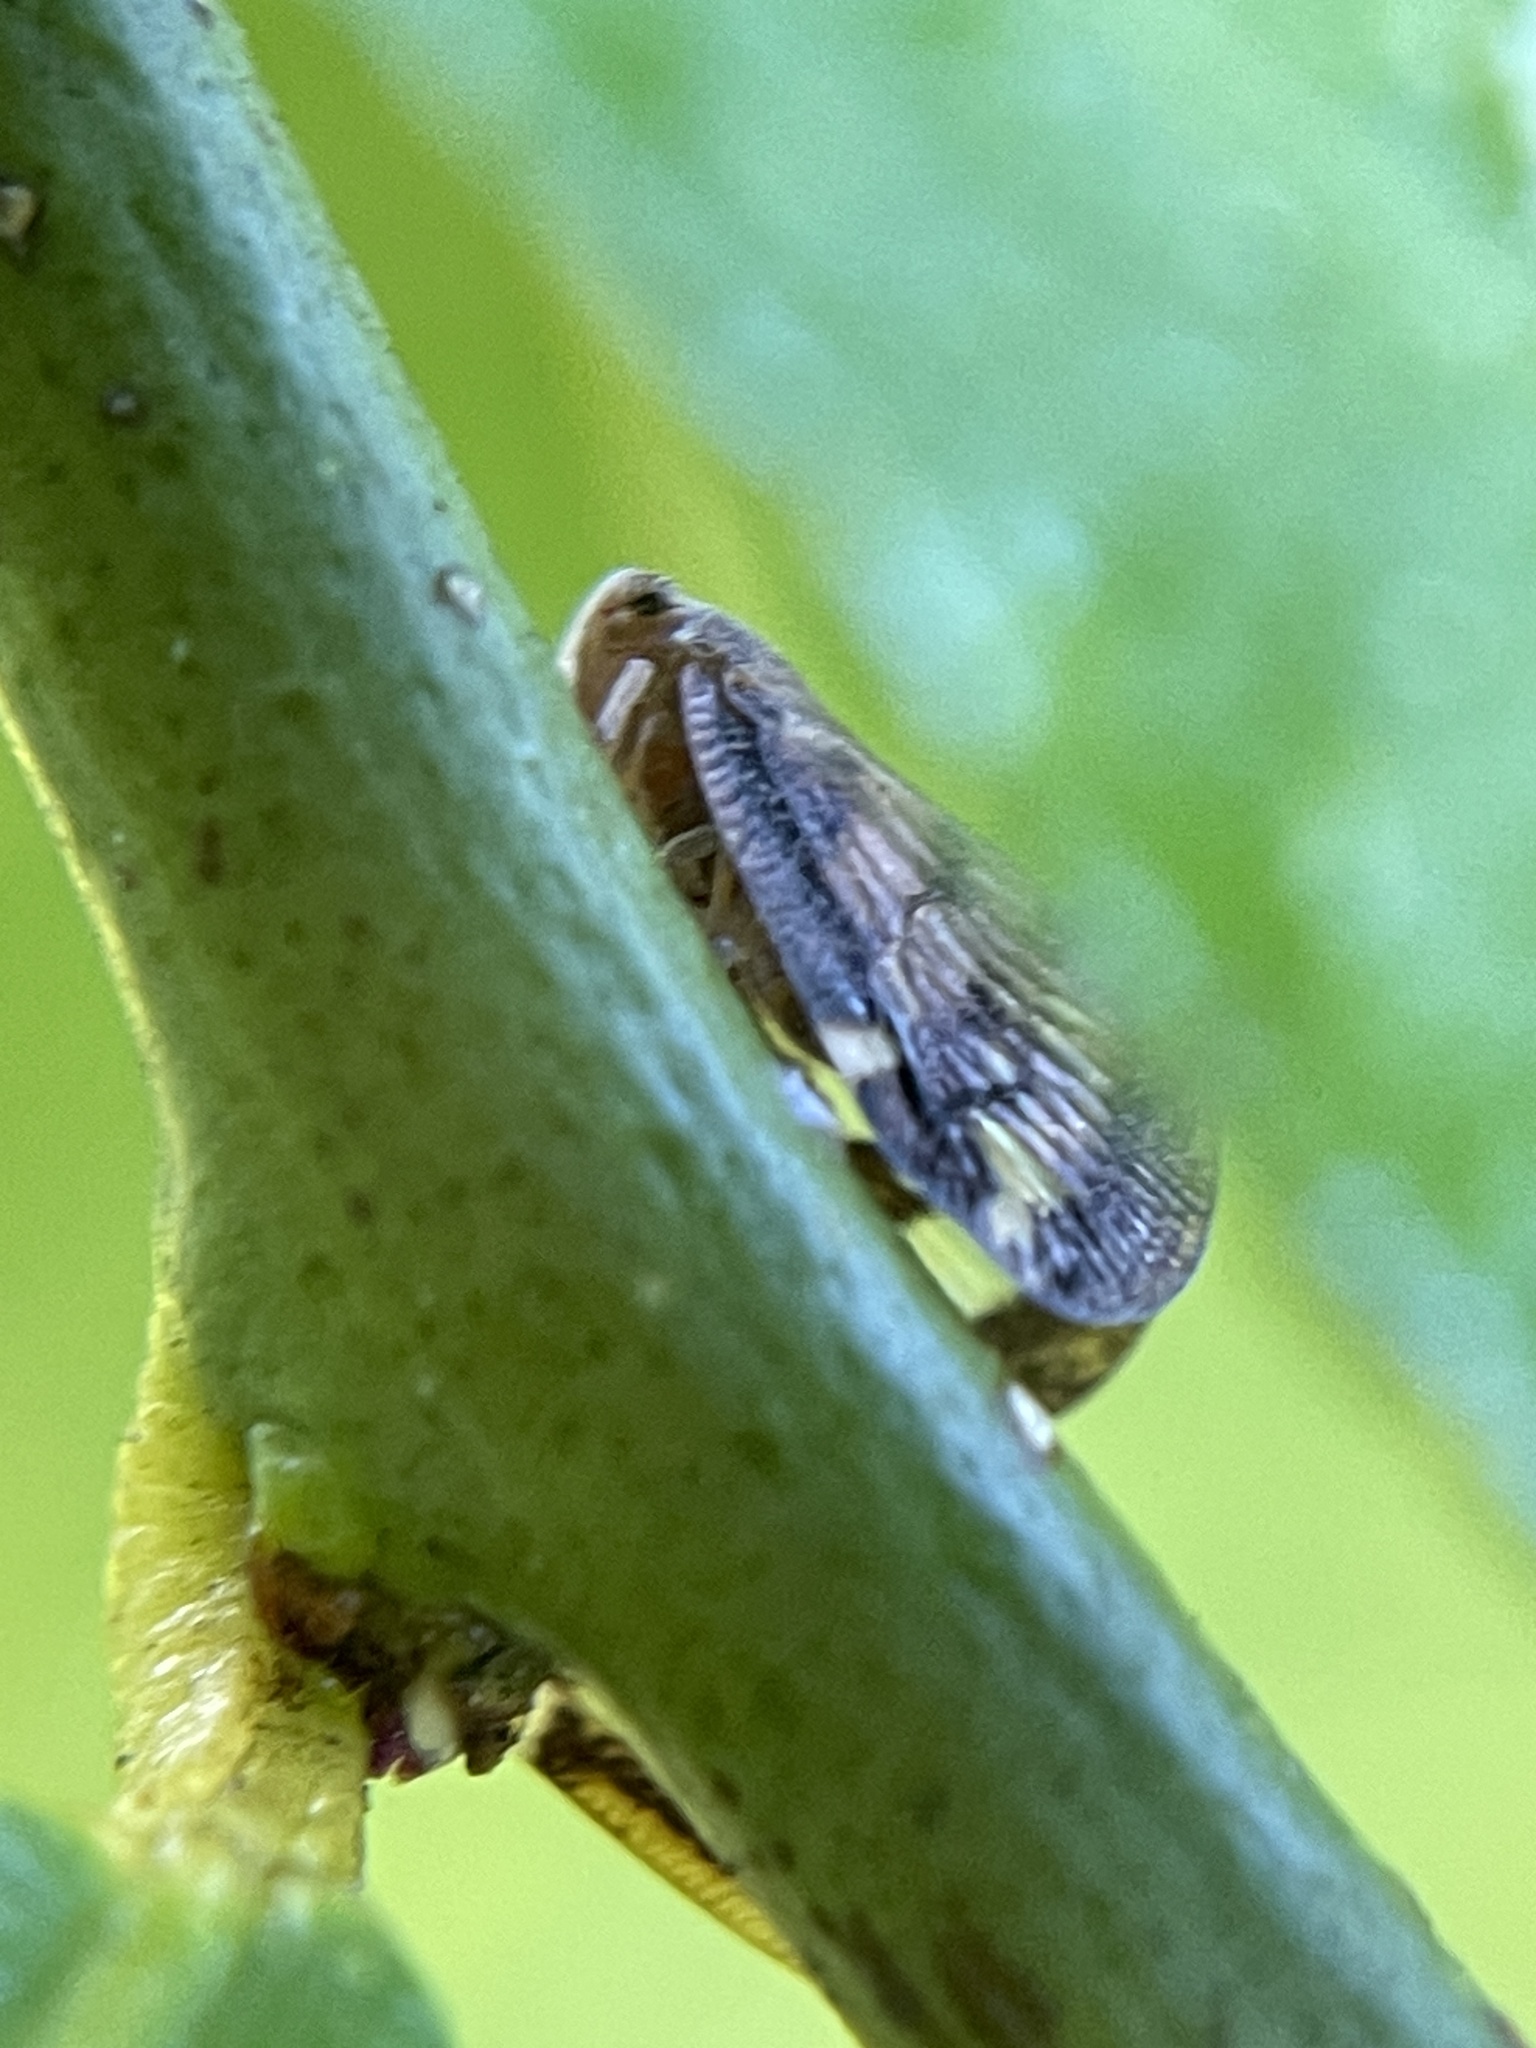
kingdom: Animalia
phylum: Arthropoda
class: Insecta
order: Hemiptera
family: Ricaniidae
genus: Scolypopa
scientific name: Scolypopa australis
